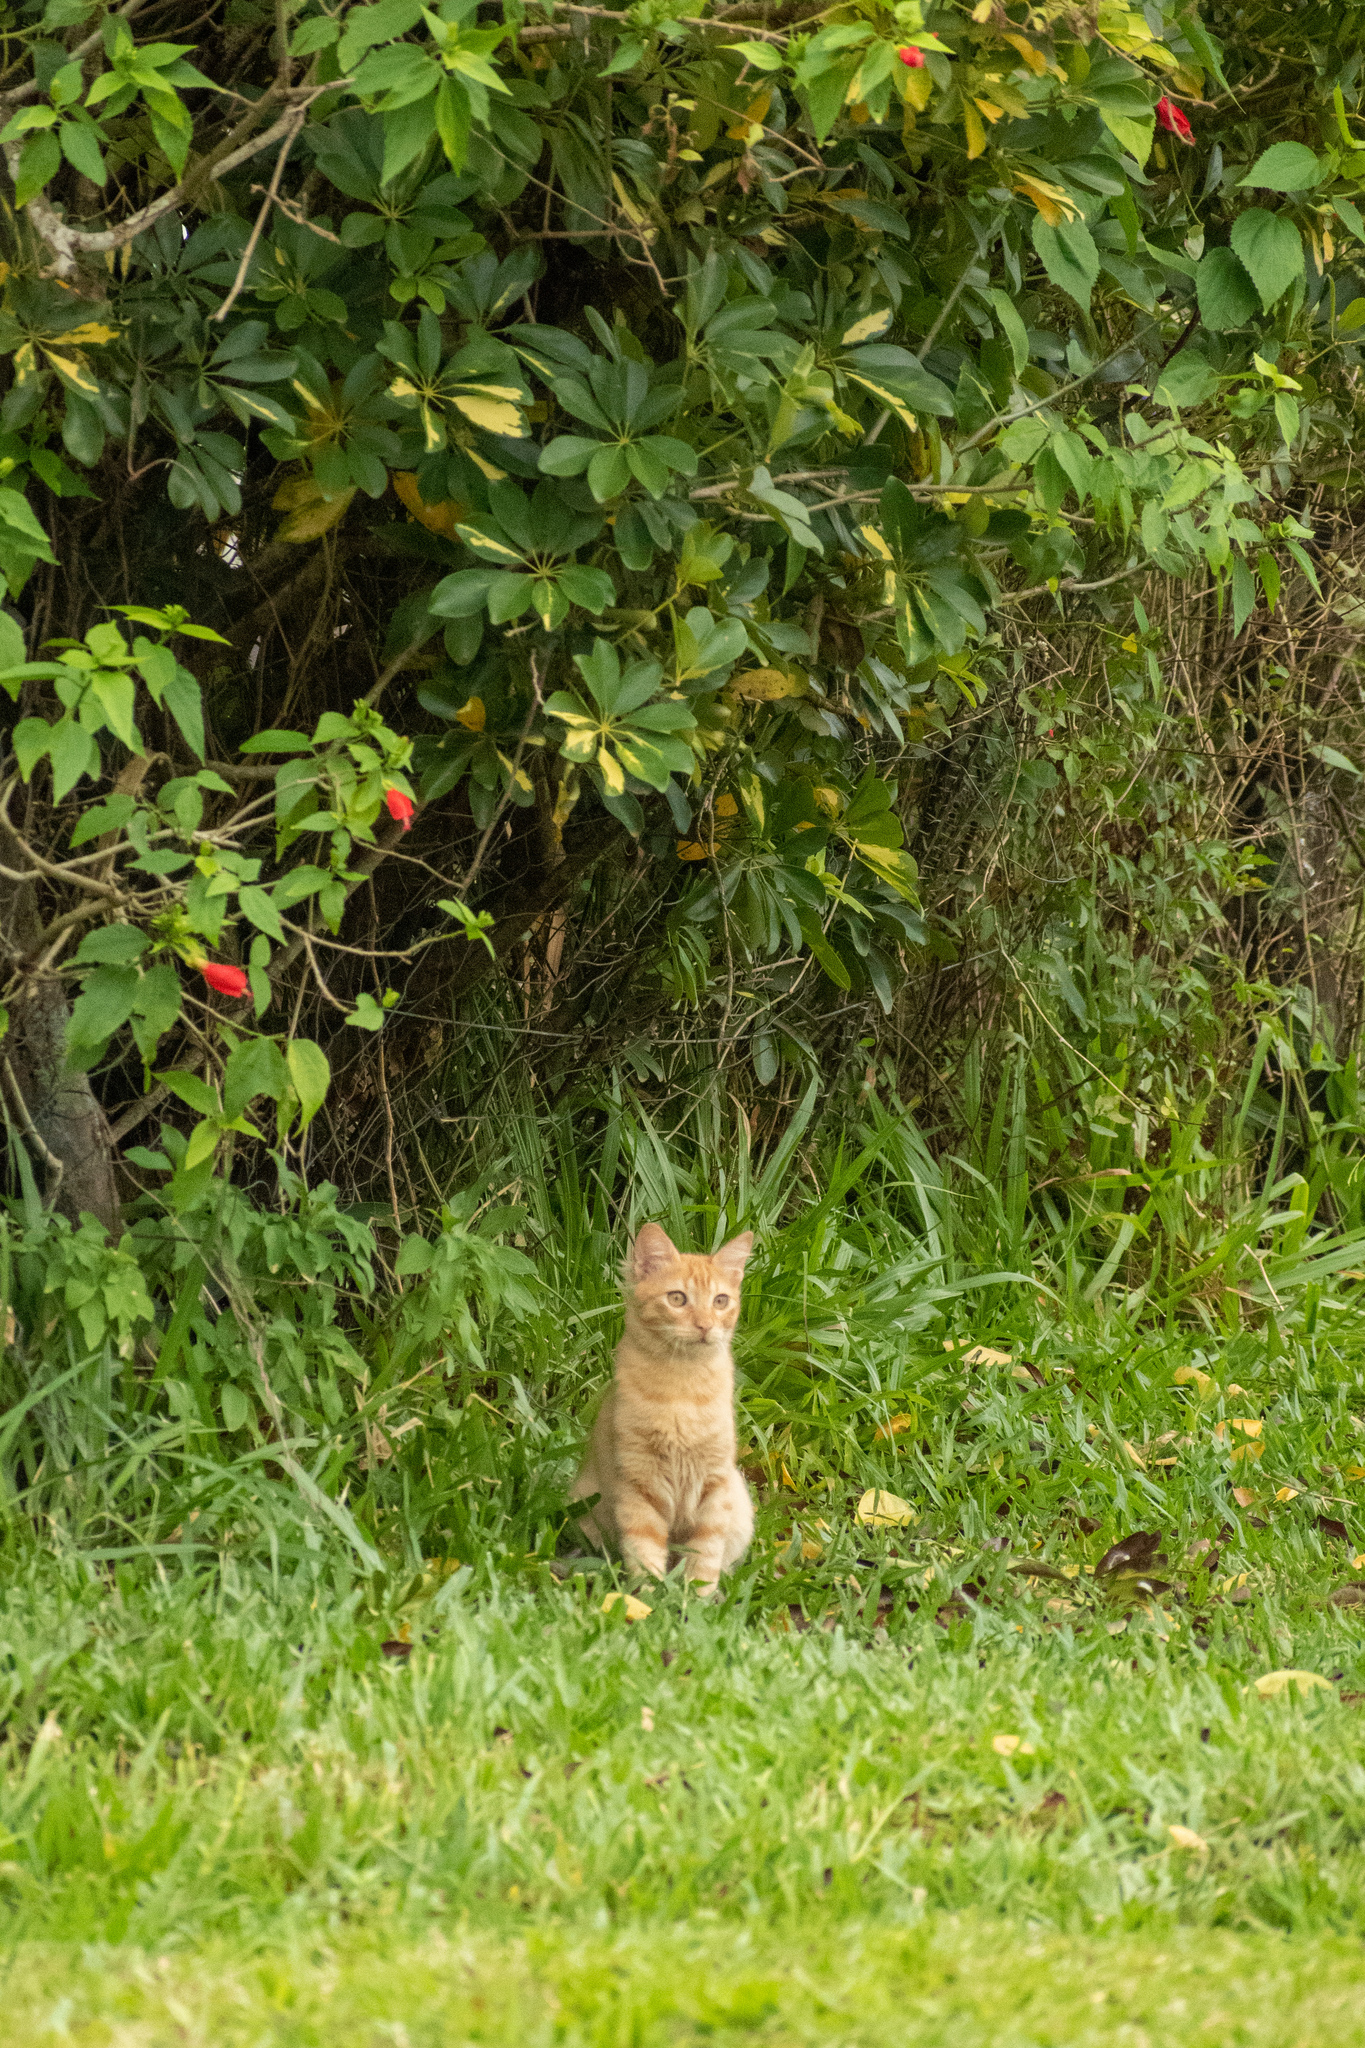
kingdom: Animalia
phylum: Chordata
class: Mammalia
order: Carnivora
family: Felidae
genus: Felis
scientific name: Felis catus
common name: Domestic cat
